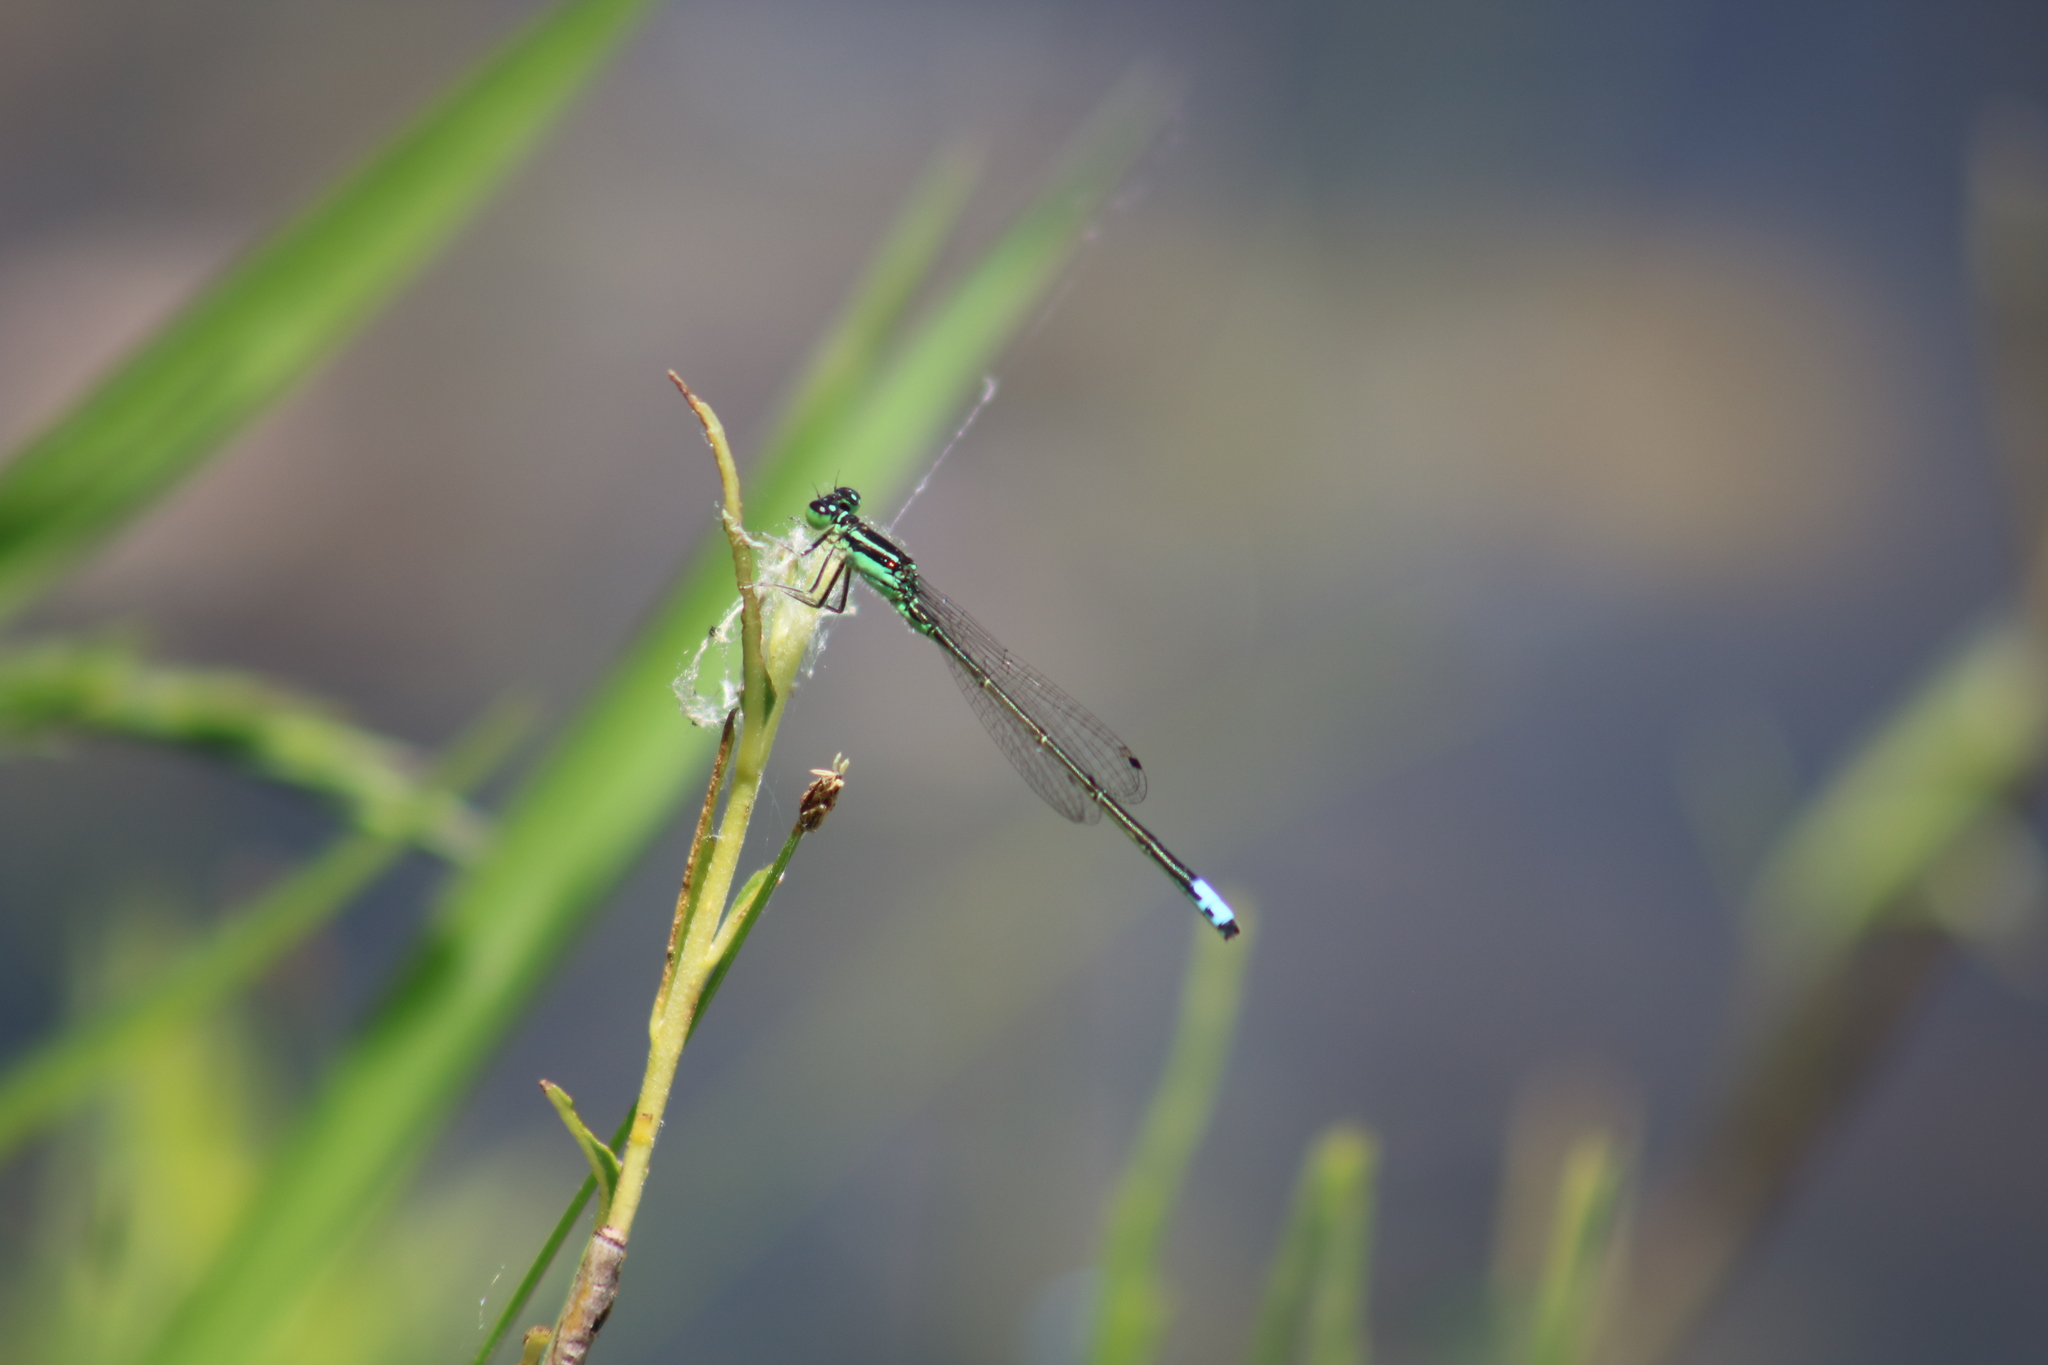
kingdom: Animalia
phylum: Arthropoda
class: Insecta
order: Odonata
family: Coenagrionidae
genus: Ischnura
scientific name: Ischnura verticalis
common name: Eastern forktail
